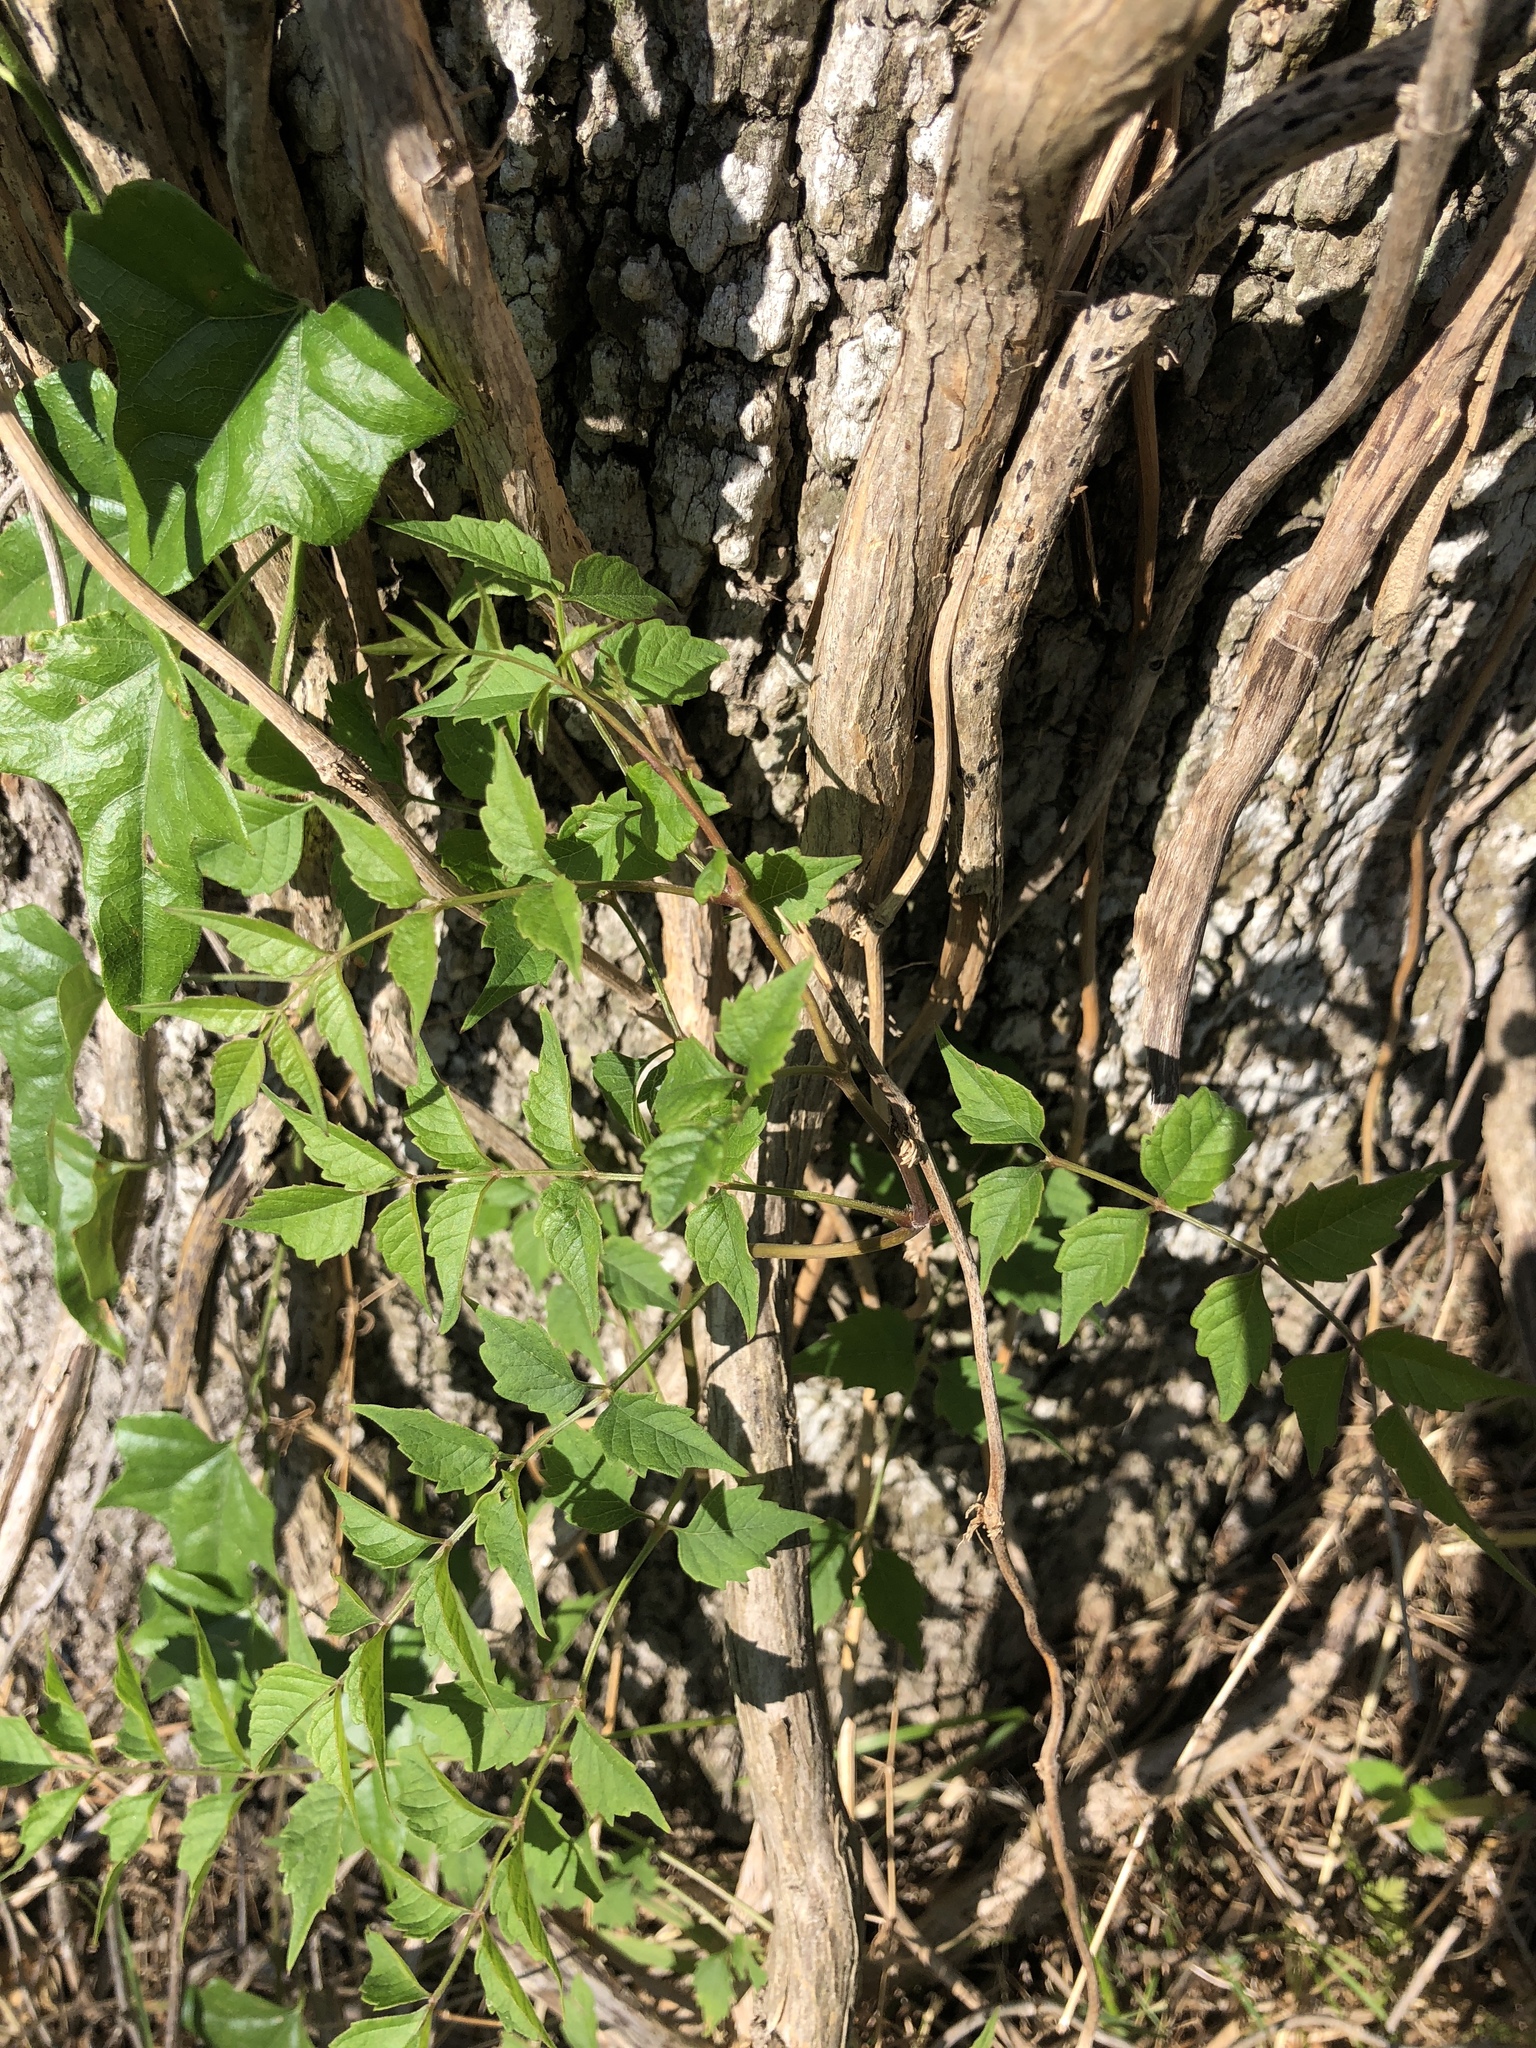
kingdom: Plantae
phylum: Tracheophyta
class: Magnoliopsida
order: Lamiales
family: Bignoniaceae
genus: Campsis
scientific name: Campsis radicans
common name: Trumpet-creeper
